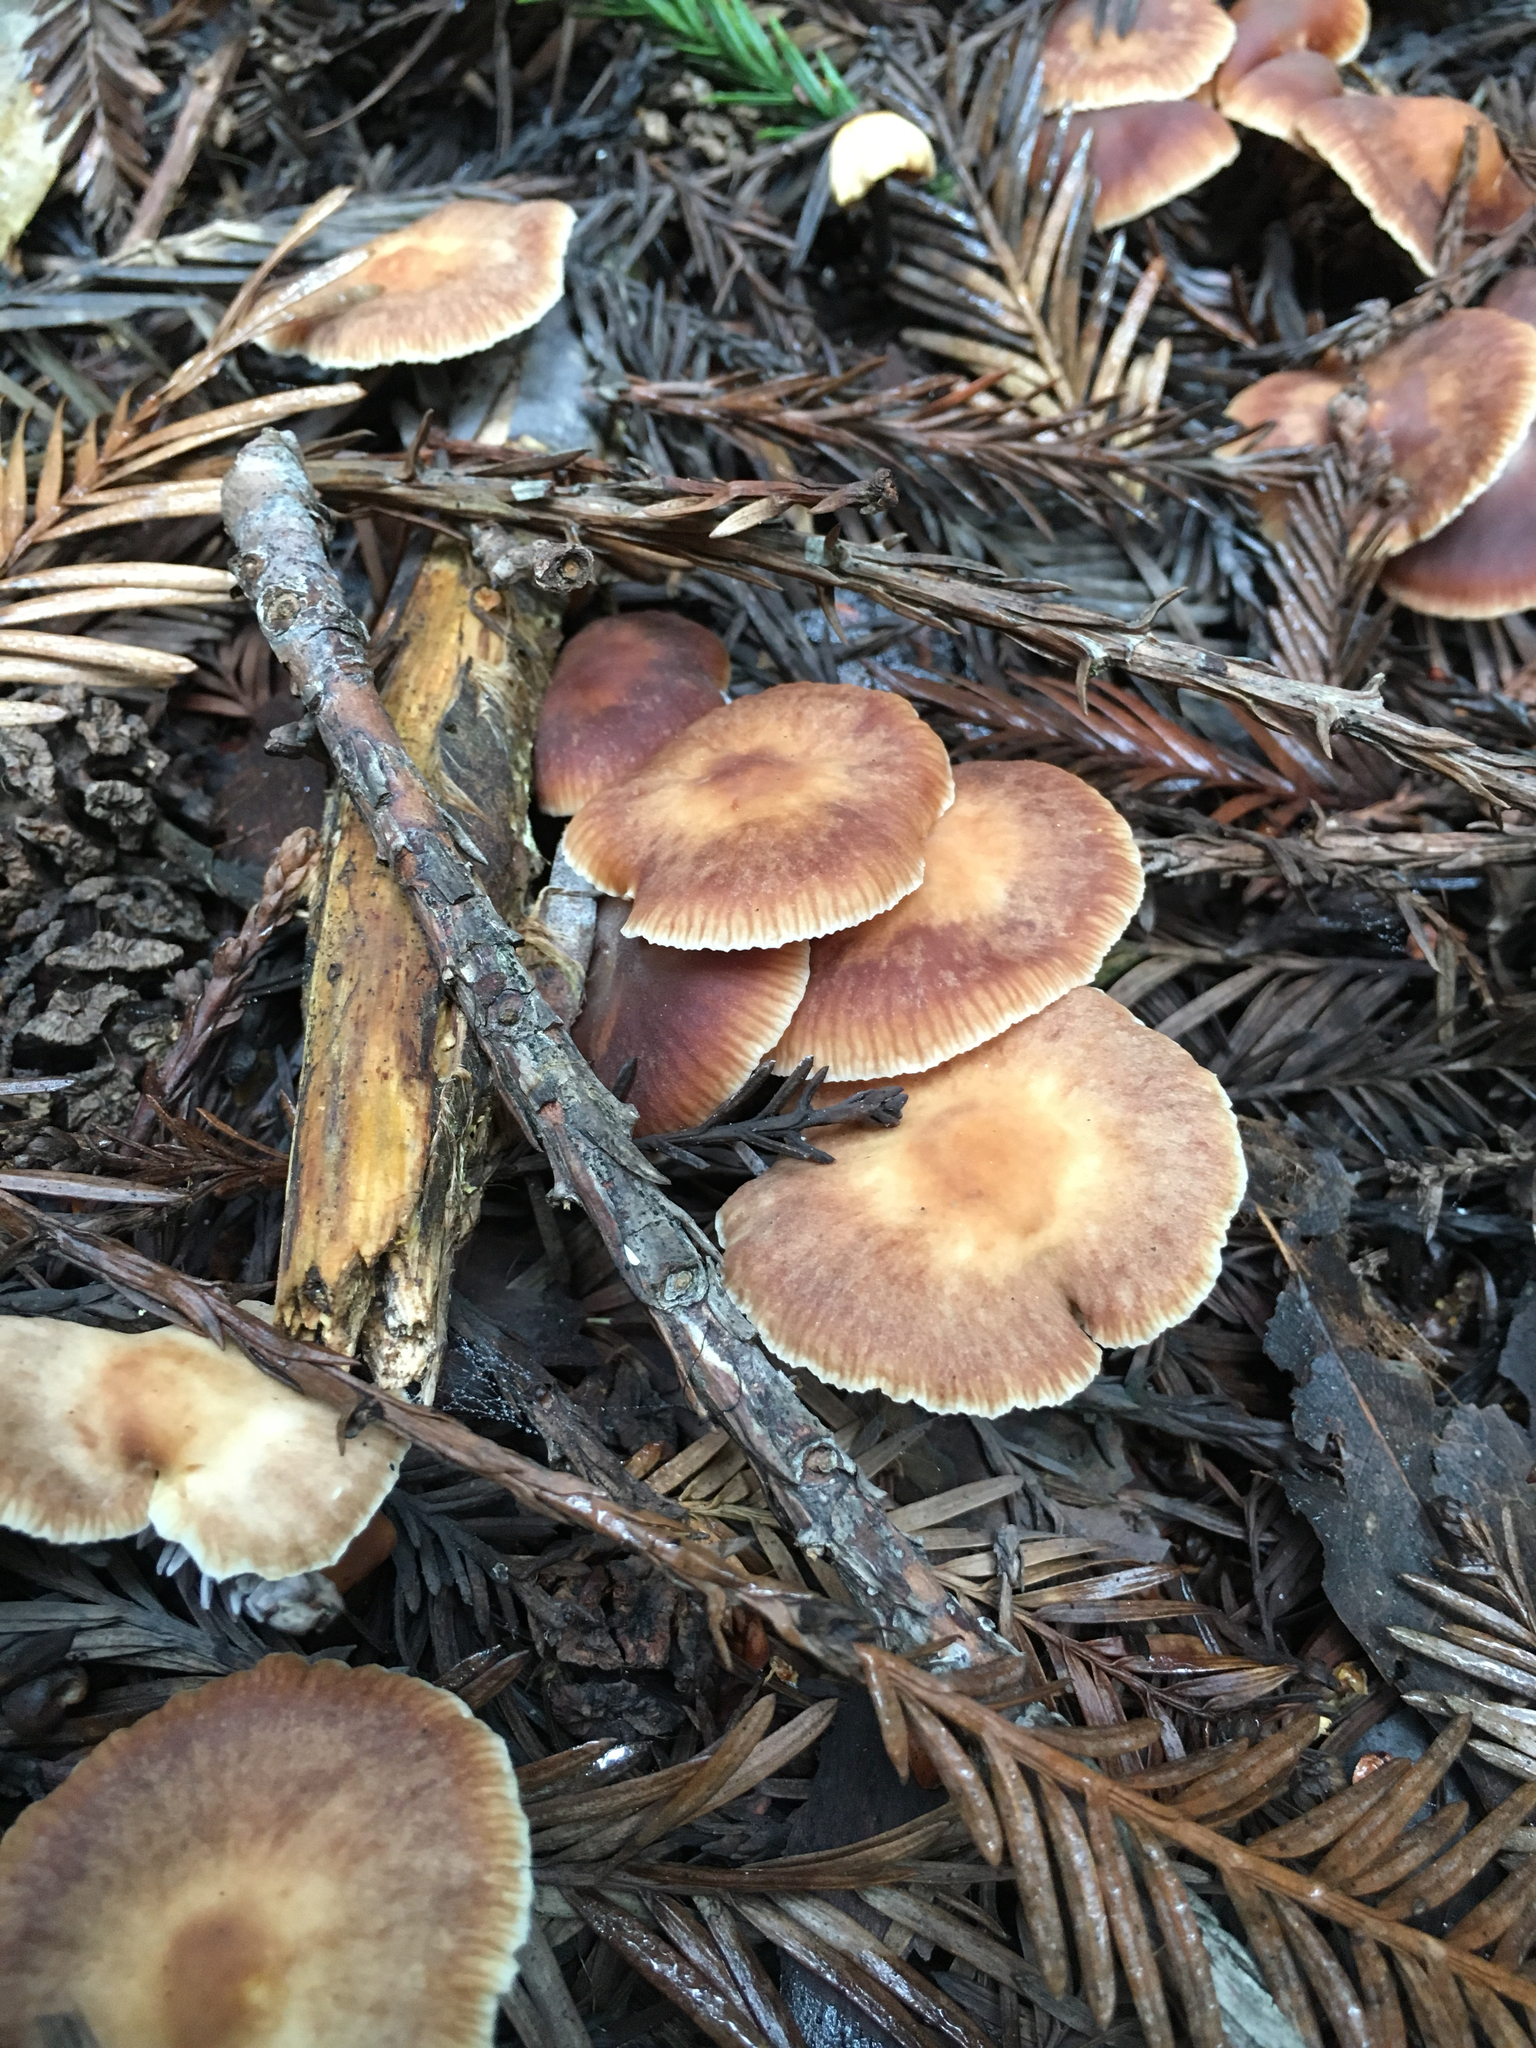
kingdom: Fungi
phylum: Basidiomycota
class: Agaricomycetes
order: Agaricales
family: Omphalotaceae
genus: Gymnopus
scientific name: Gymnopus brassicolens
